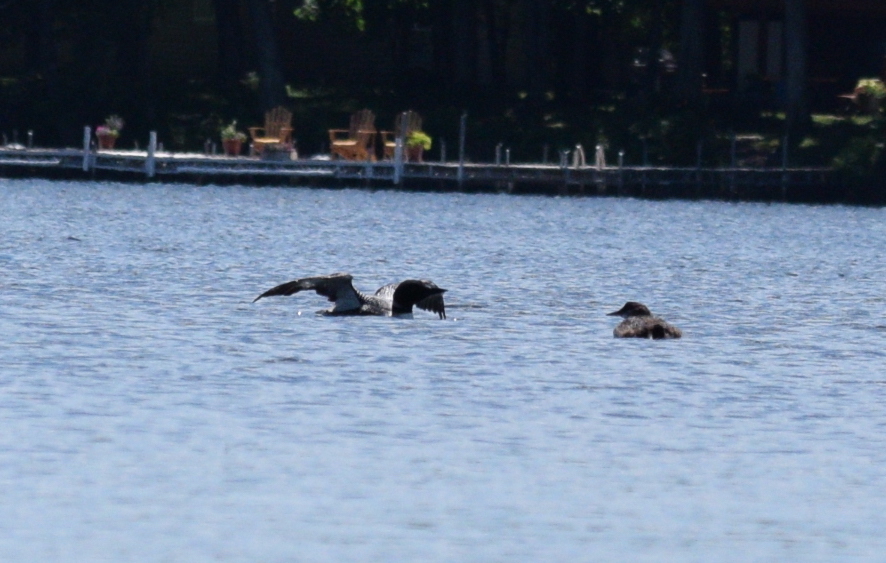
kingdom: Animalia
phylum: Chordata
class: Aves
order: Gaviiformes
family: Gaviidae
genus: Gavia
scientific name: Gavia immer
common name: Common loon
